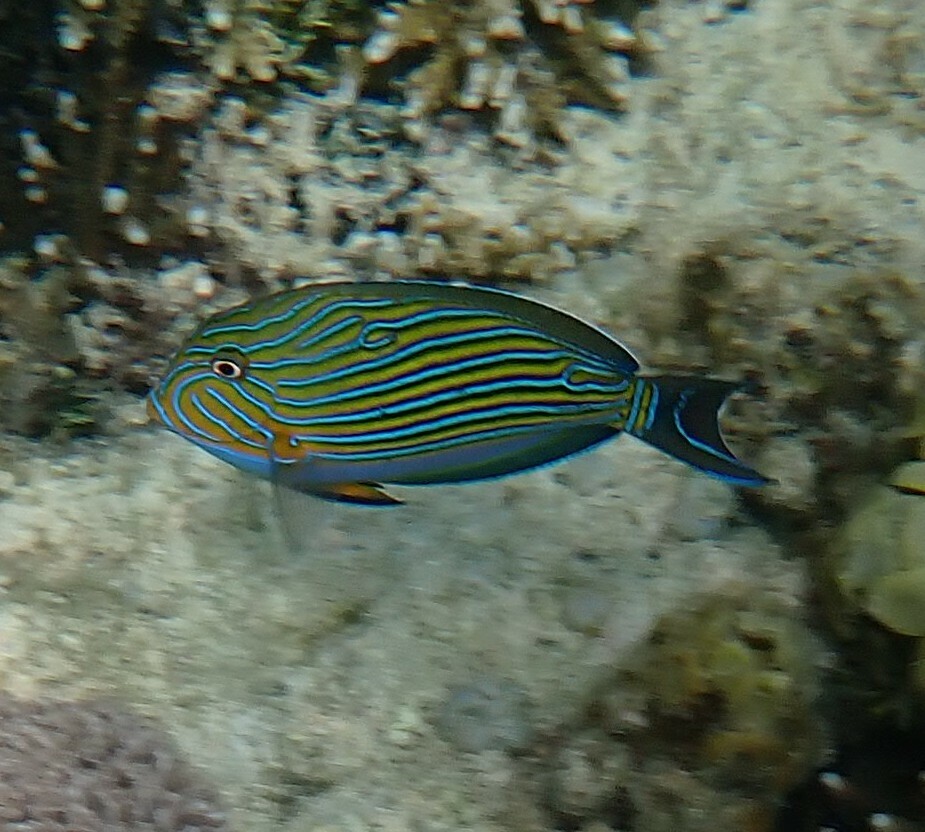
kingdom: Animalia
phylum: Chordata
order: Perciformes
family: Acanthuridae
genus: Acanthurus
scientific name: Acanthurus lineatus
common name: Striped surgeonfish
